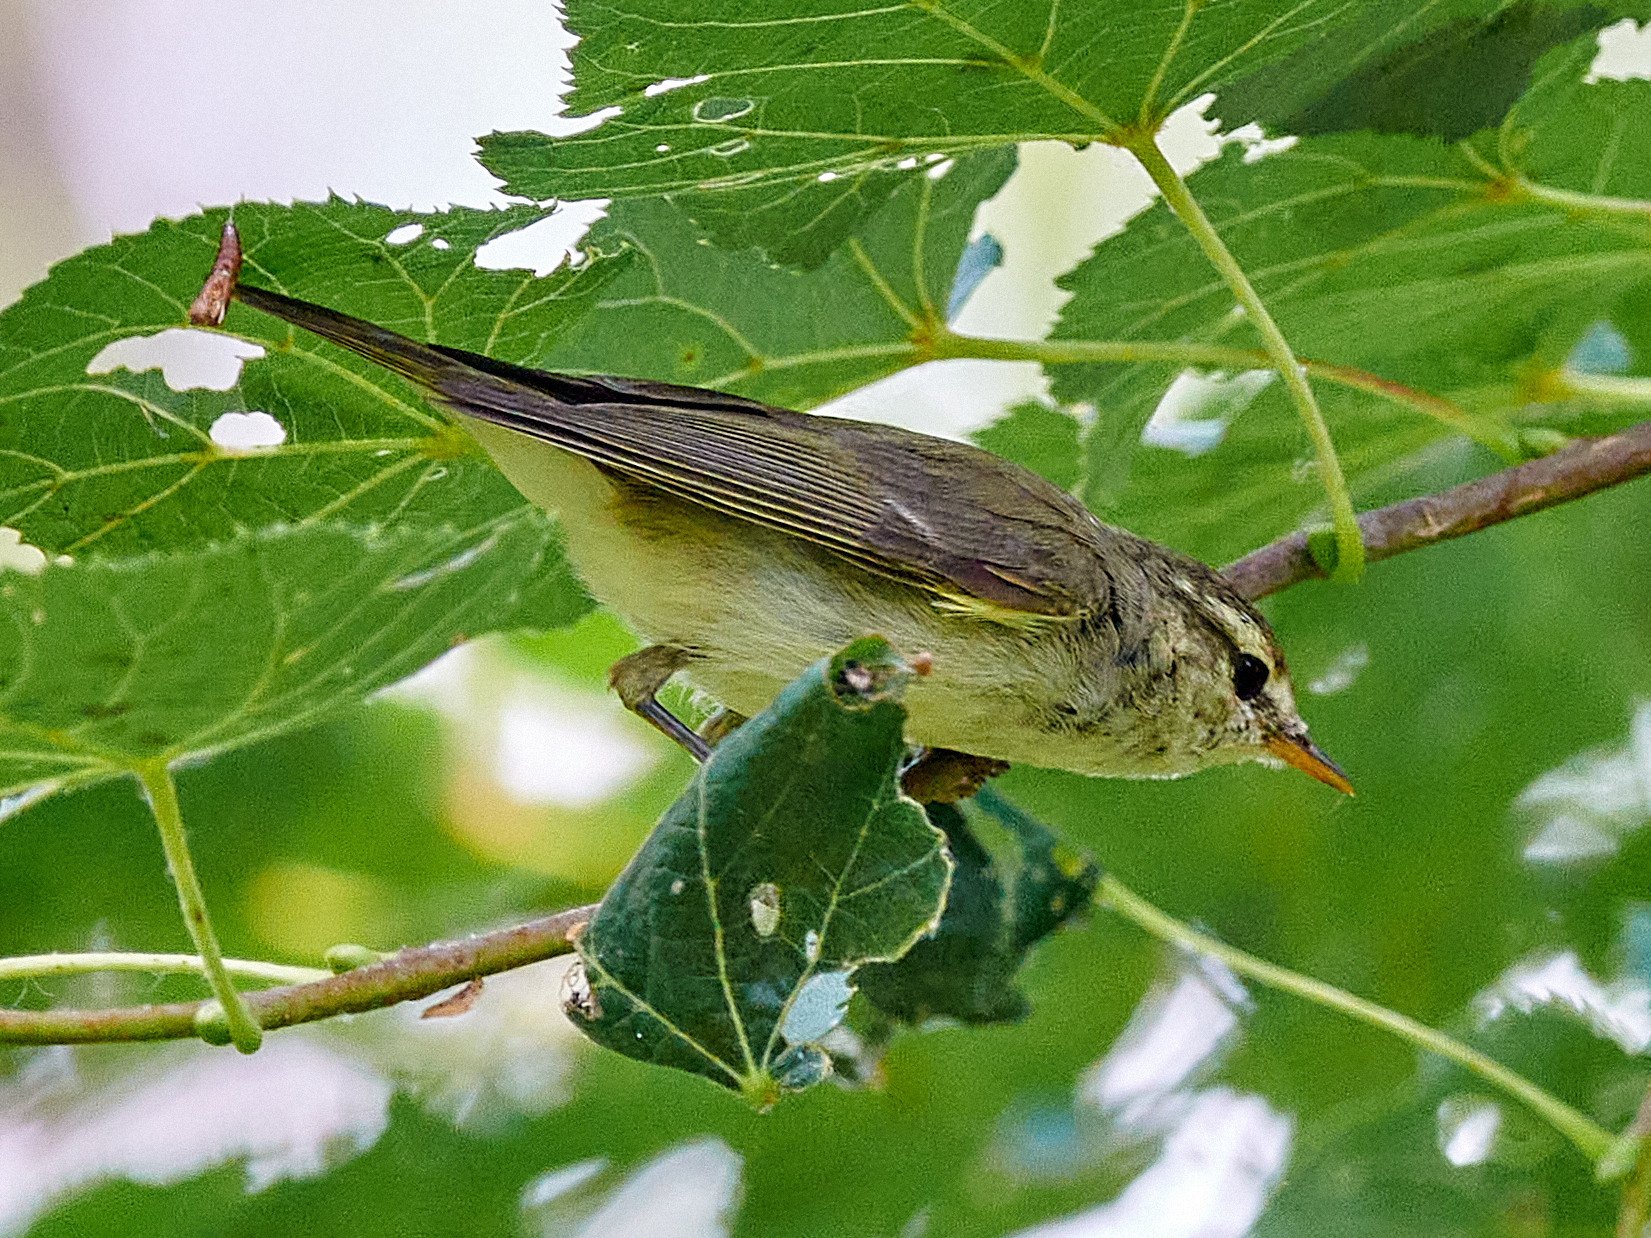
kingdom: Animalia
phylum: Chordata
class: Aves
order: Passeriformes
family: Phylloscopidae
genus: Phylloscopus
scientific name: Phylloscopus trochiloides
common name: Greenish warbler
